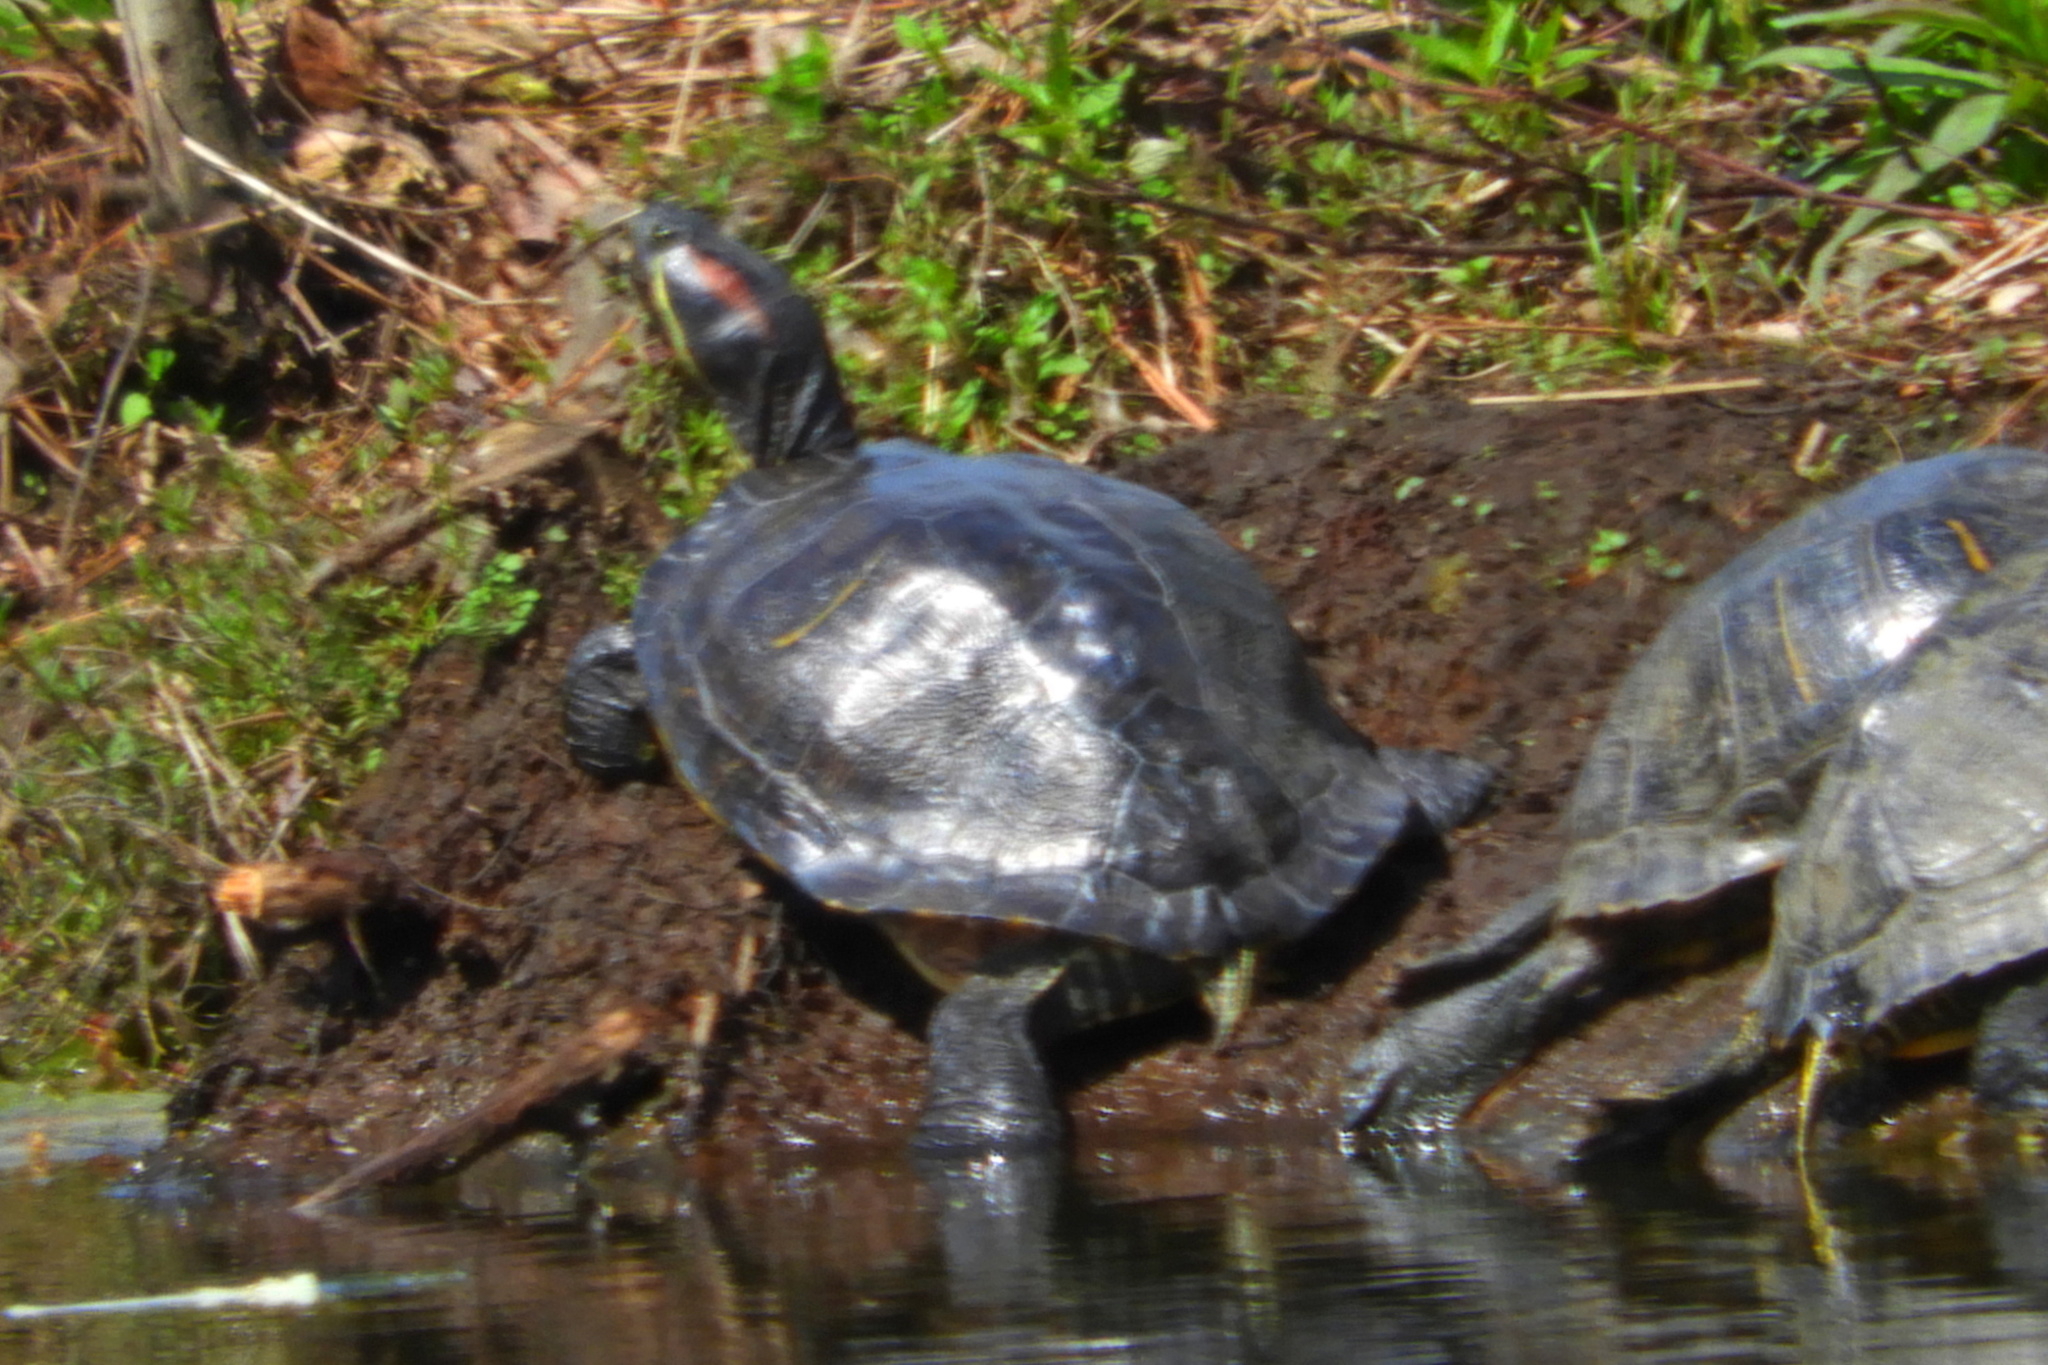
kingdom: Animalia
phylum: Chordata
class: Testudines
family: Emydidae
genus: Trachemys
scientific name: Trachemys scripta
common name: Slider
